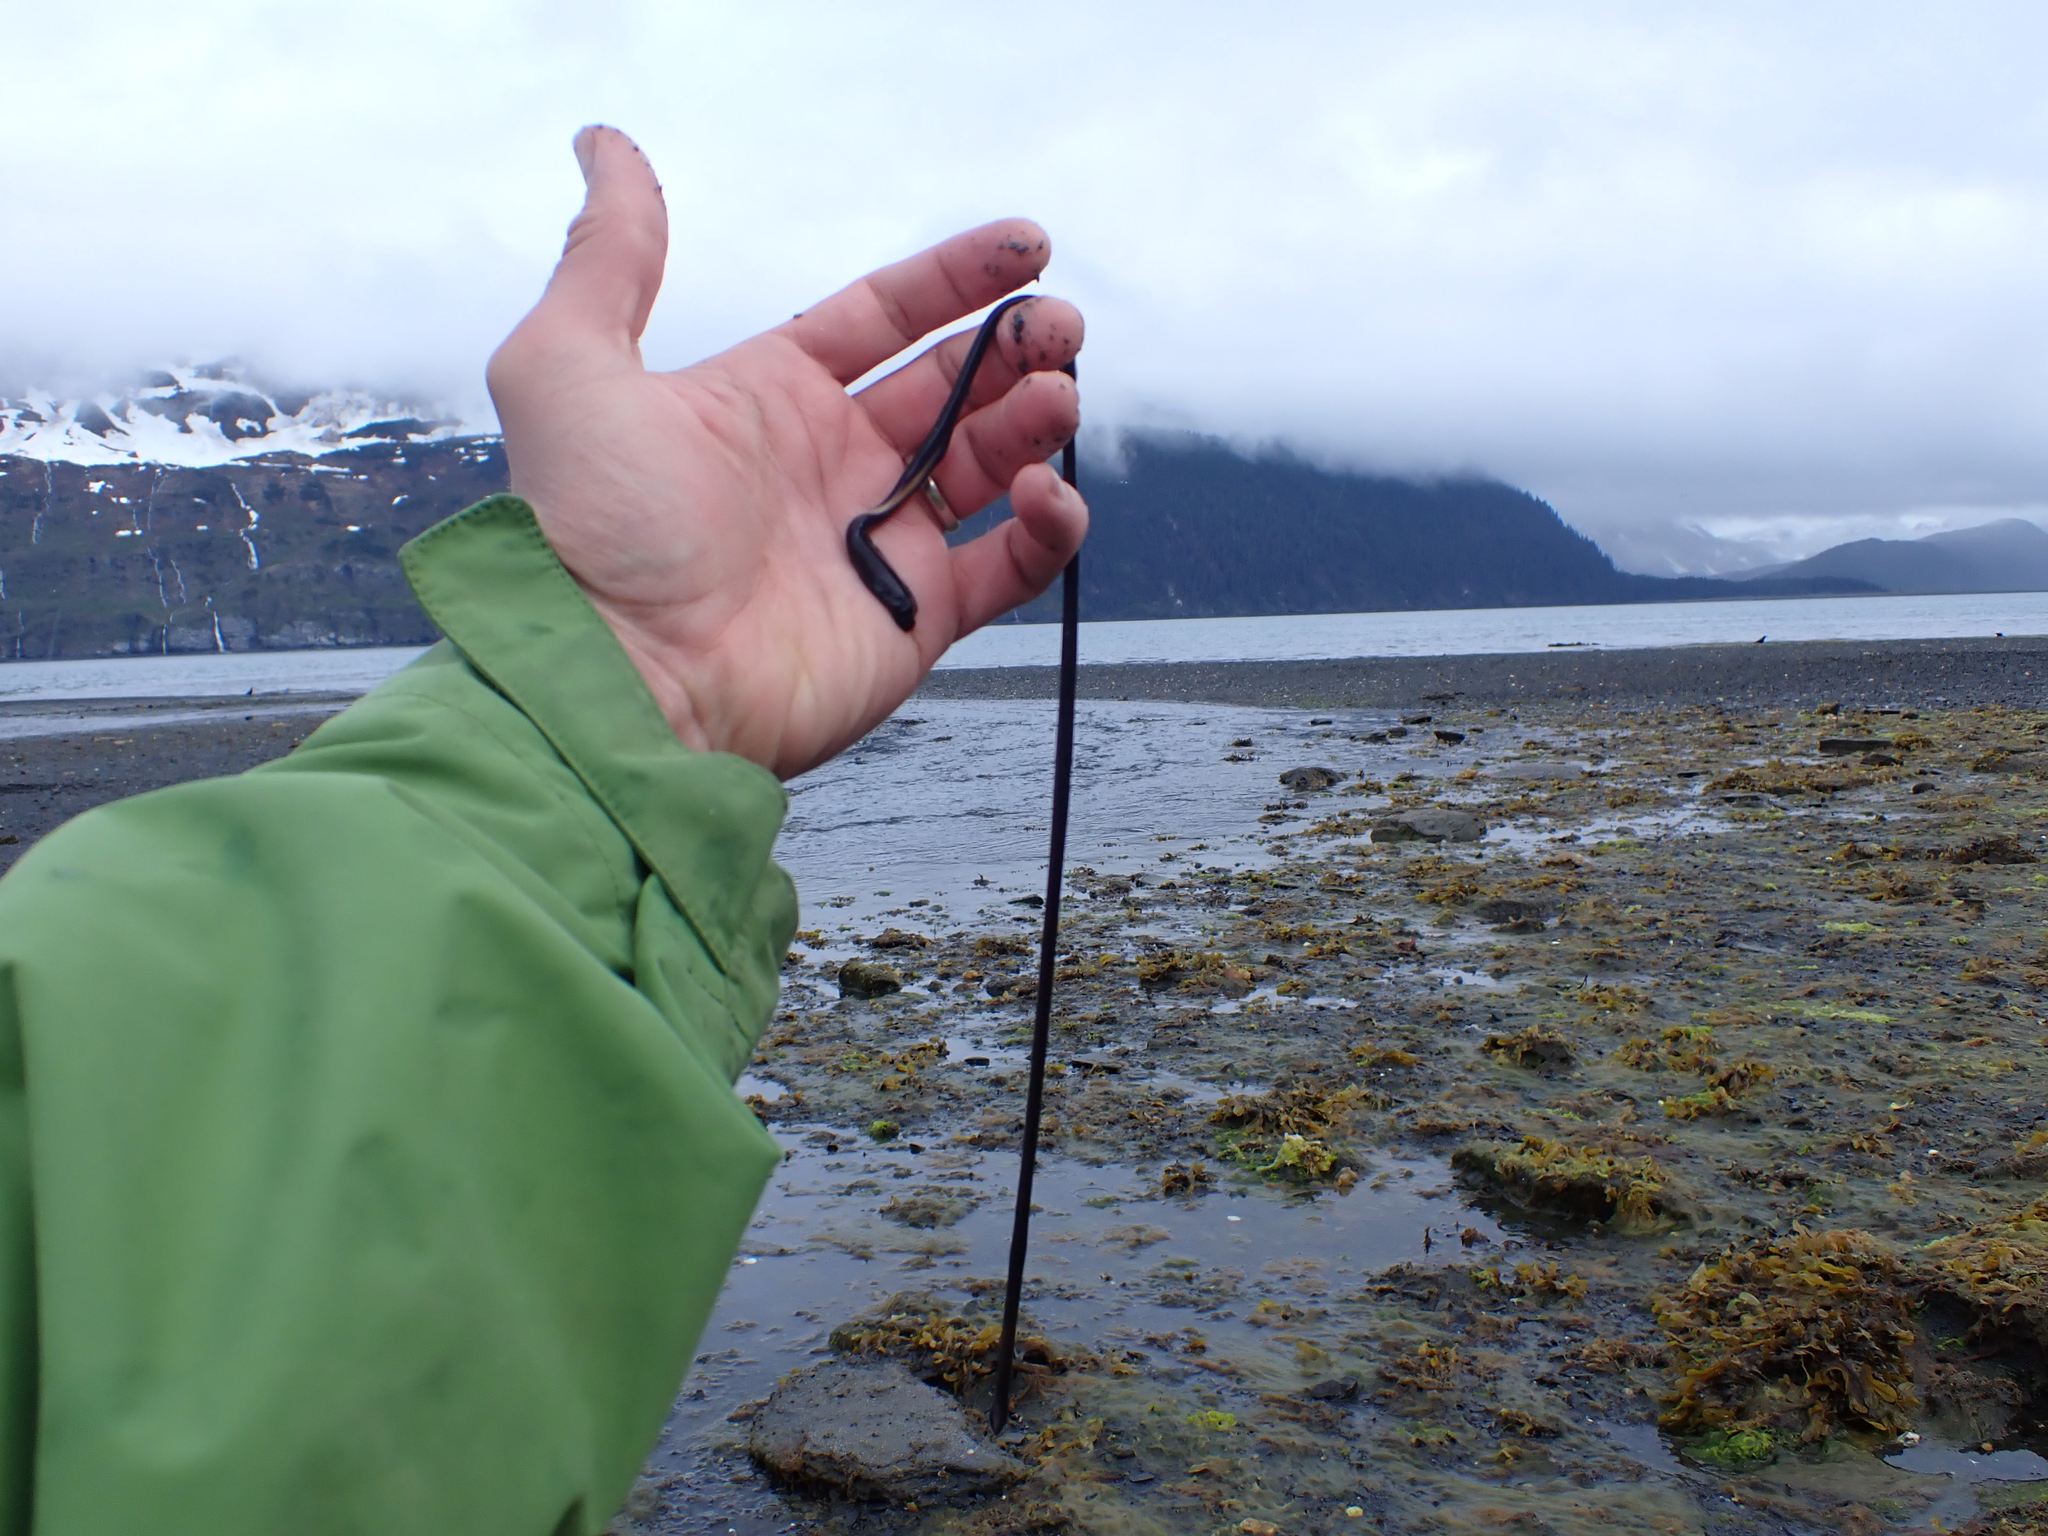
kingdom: Animalia
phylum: Nemertea
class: Hoplonemertea
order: Monostilifera
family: Neesiidae
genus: Paranemertes
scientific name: Paranemertes peregrina
